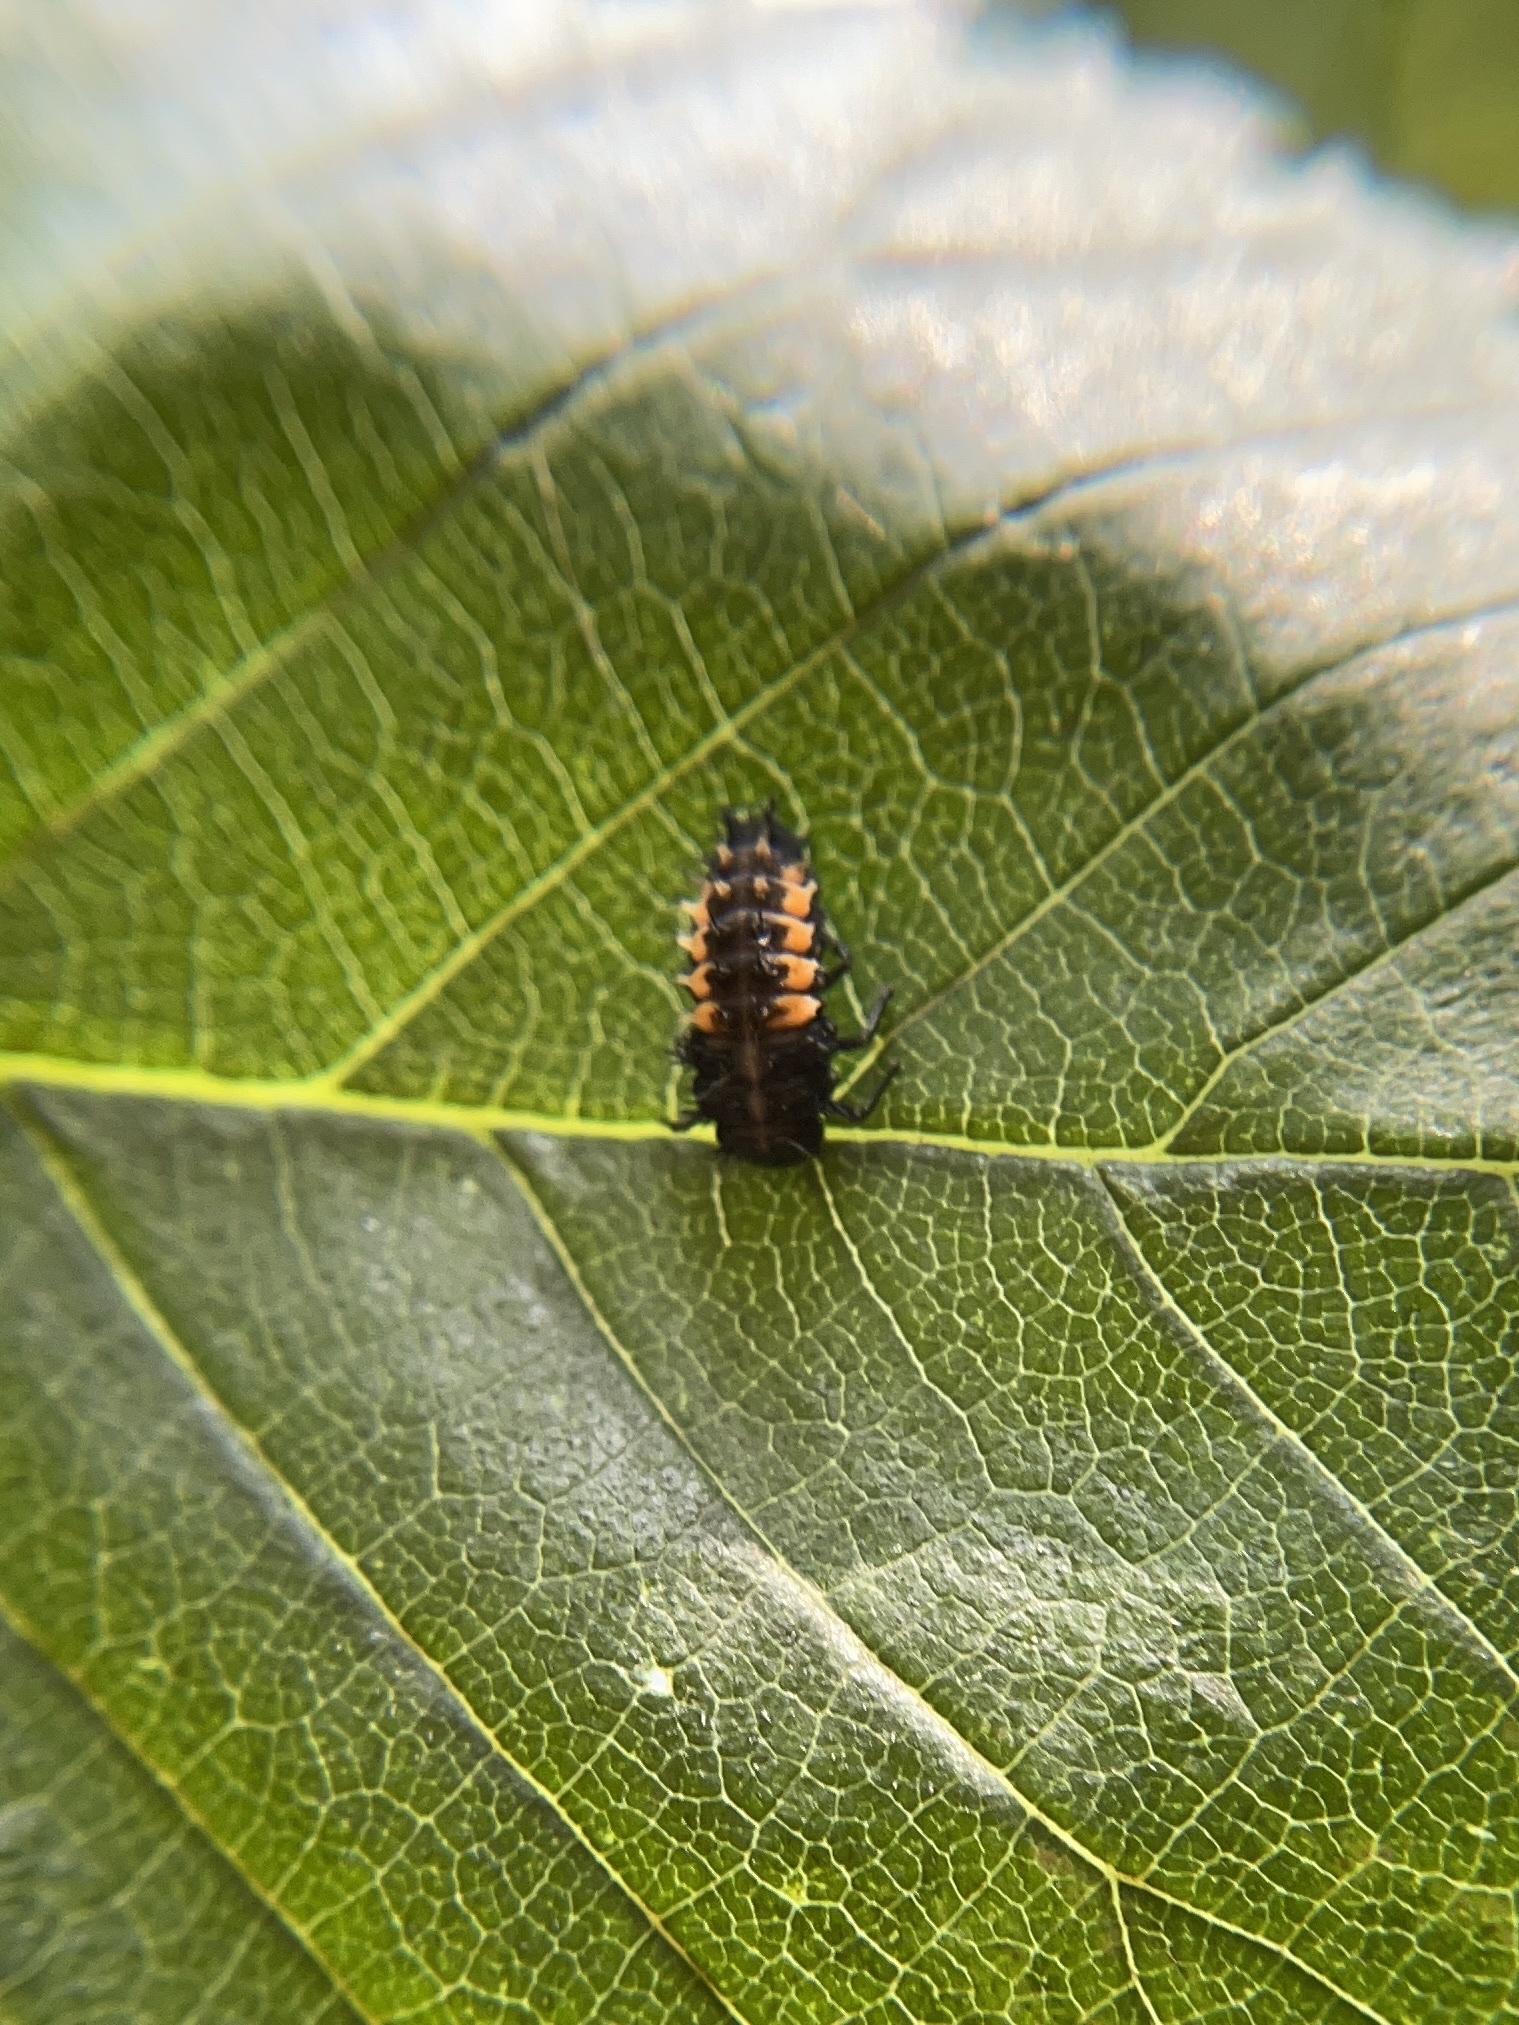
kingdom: Animalia
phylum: Arthropoda
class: Insecta
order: Coleoptera
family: Coccinellidae
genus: Harmonia
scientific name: Harmonia axyridis
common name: Harlequin ladybird
